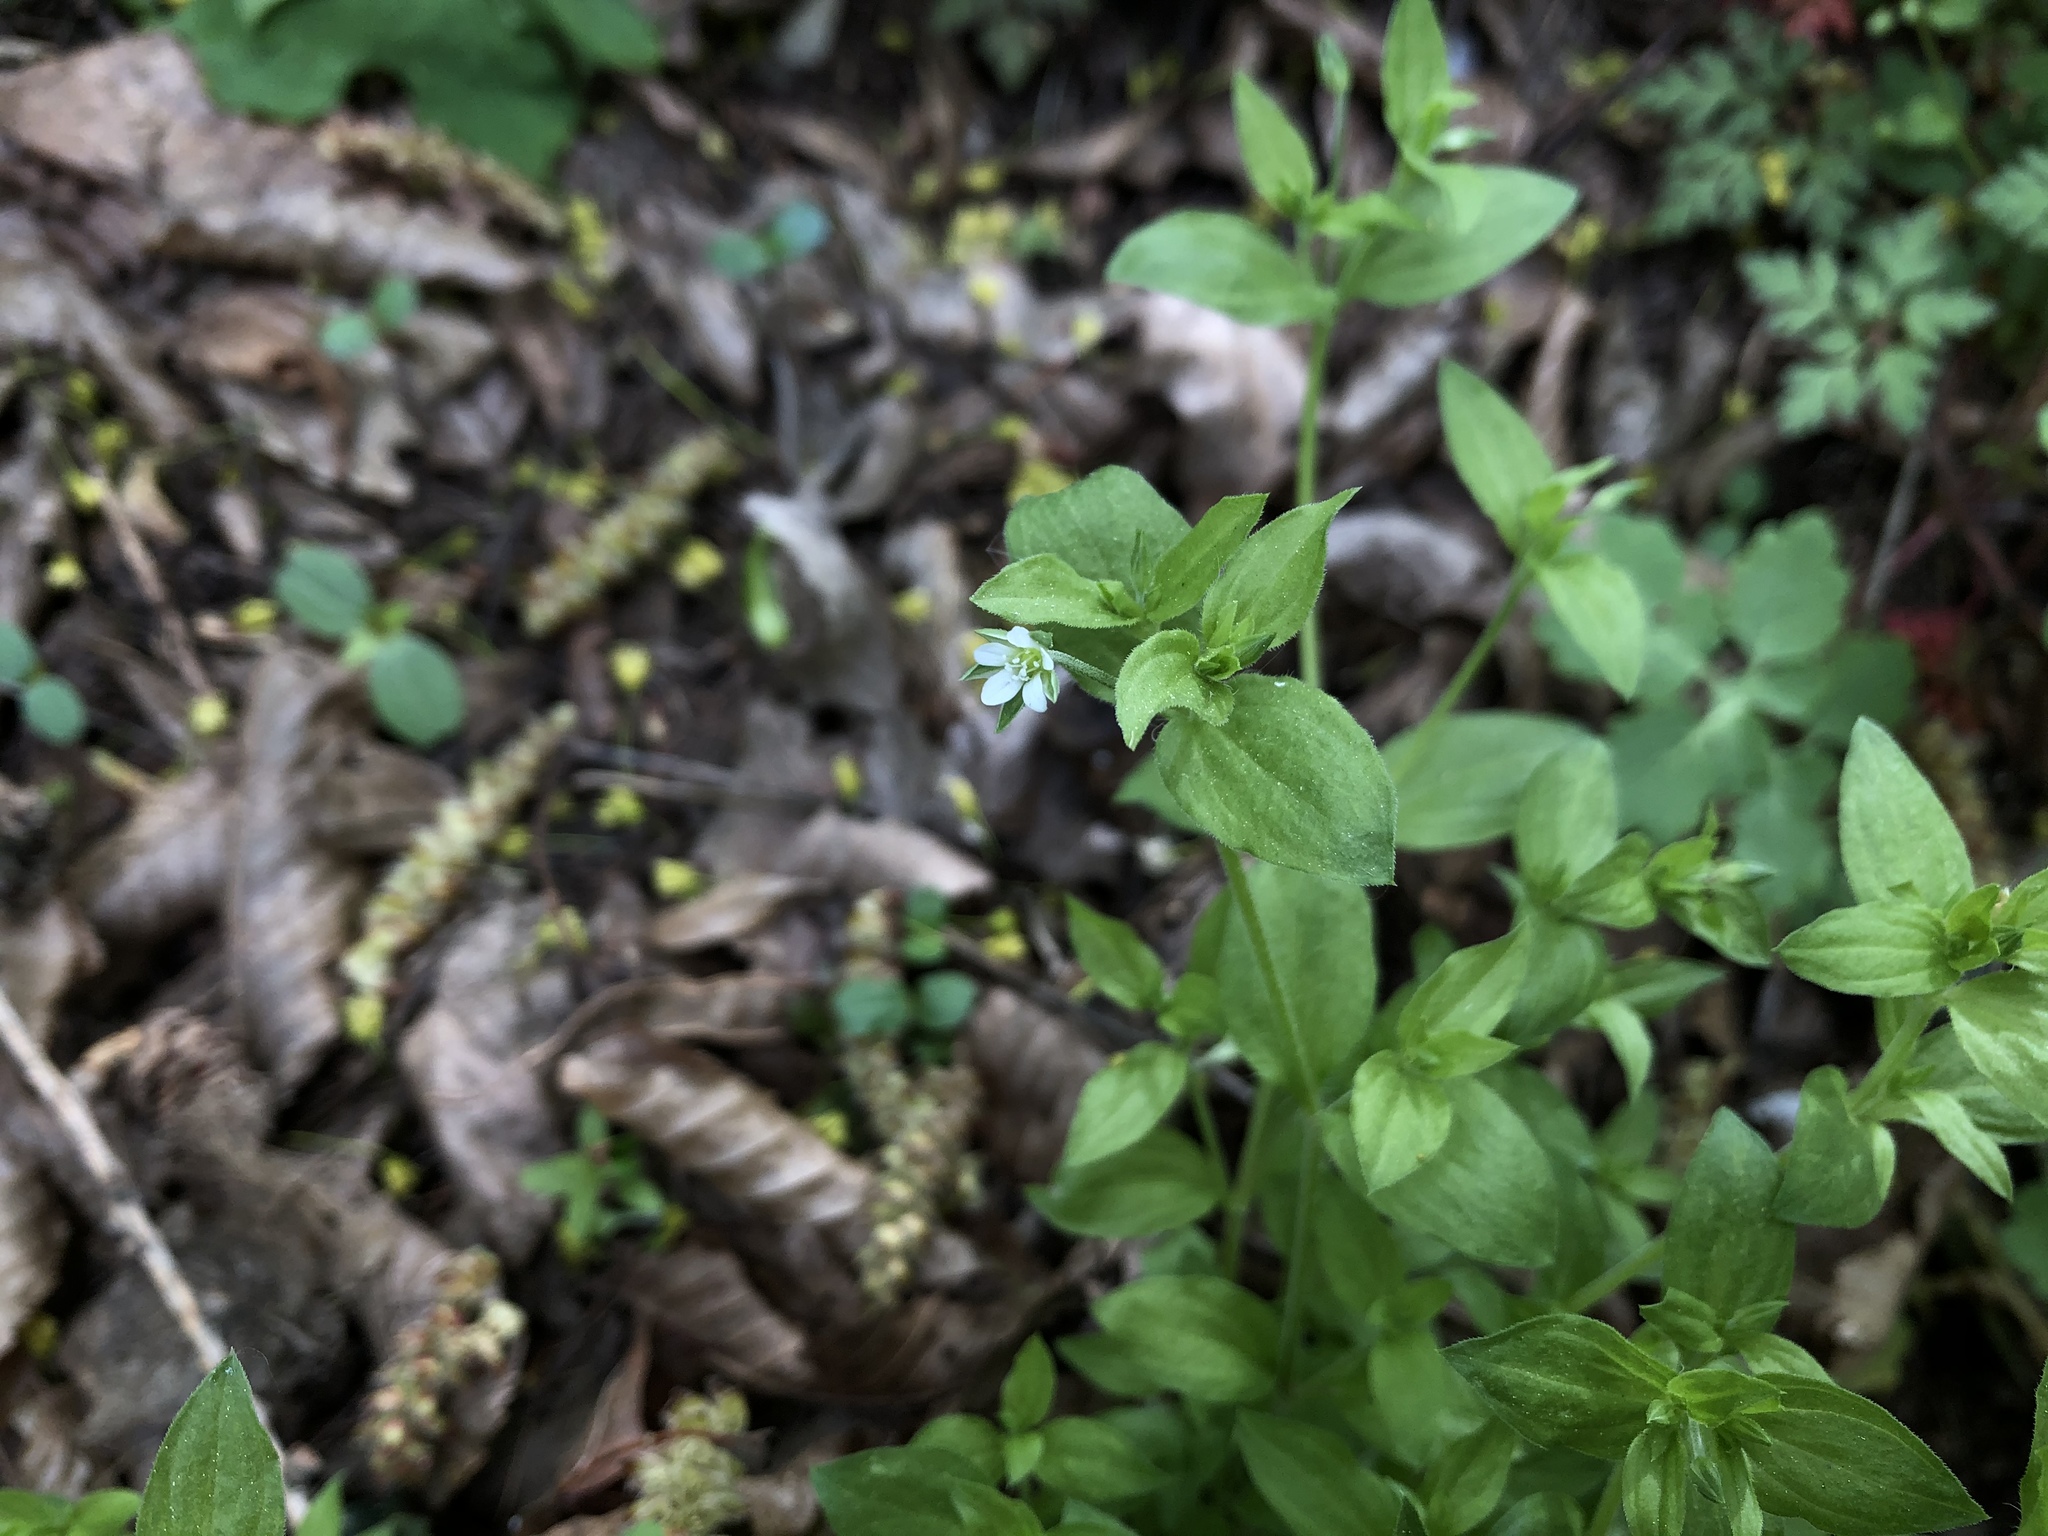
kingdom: Plantae
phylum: Tracheophyta
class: Magnoliopsida
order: Caryophyllales
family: Caryophyllaceae
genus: Moehringia
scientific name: Moehringia trinervia
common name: Three-nerved sandwort
